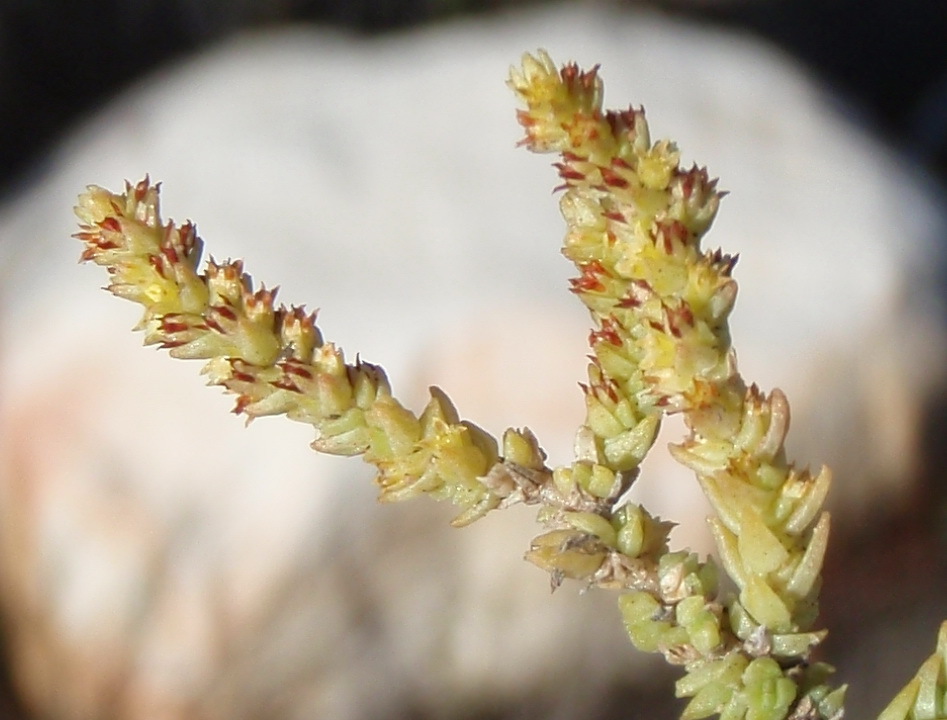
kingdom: Plantae
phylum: Tracheophyta
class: Magnoliopsida
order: Saxifragales
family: Crassulaceae
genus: Crassula
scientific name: Crassula muscosa
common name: Toy-cypress
